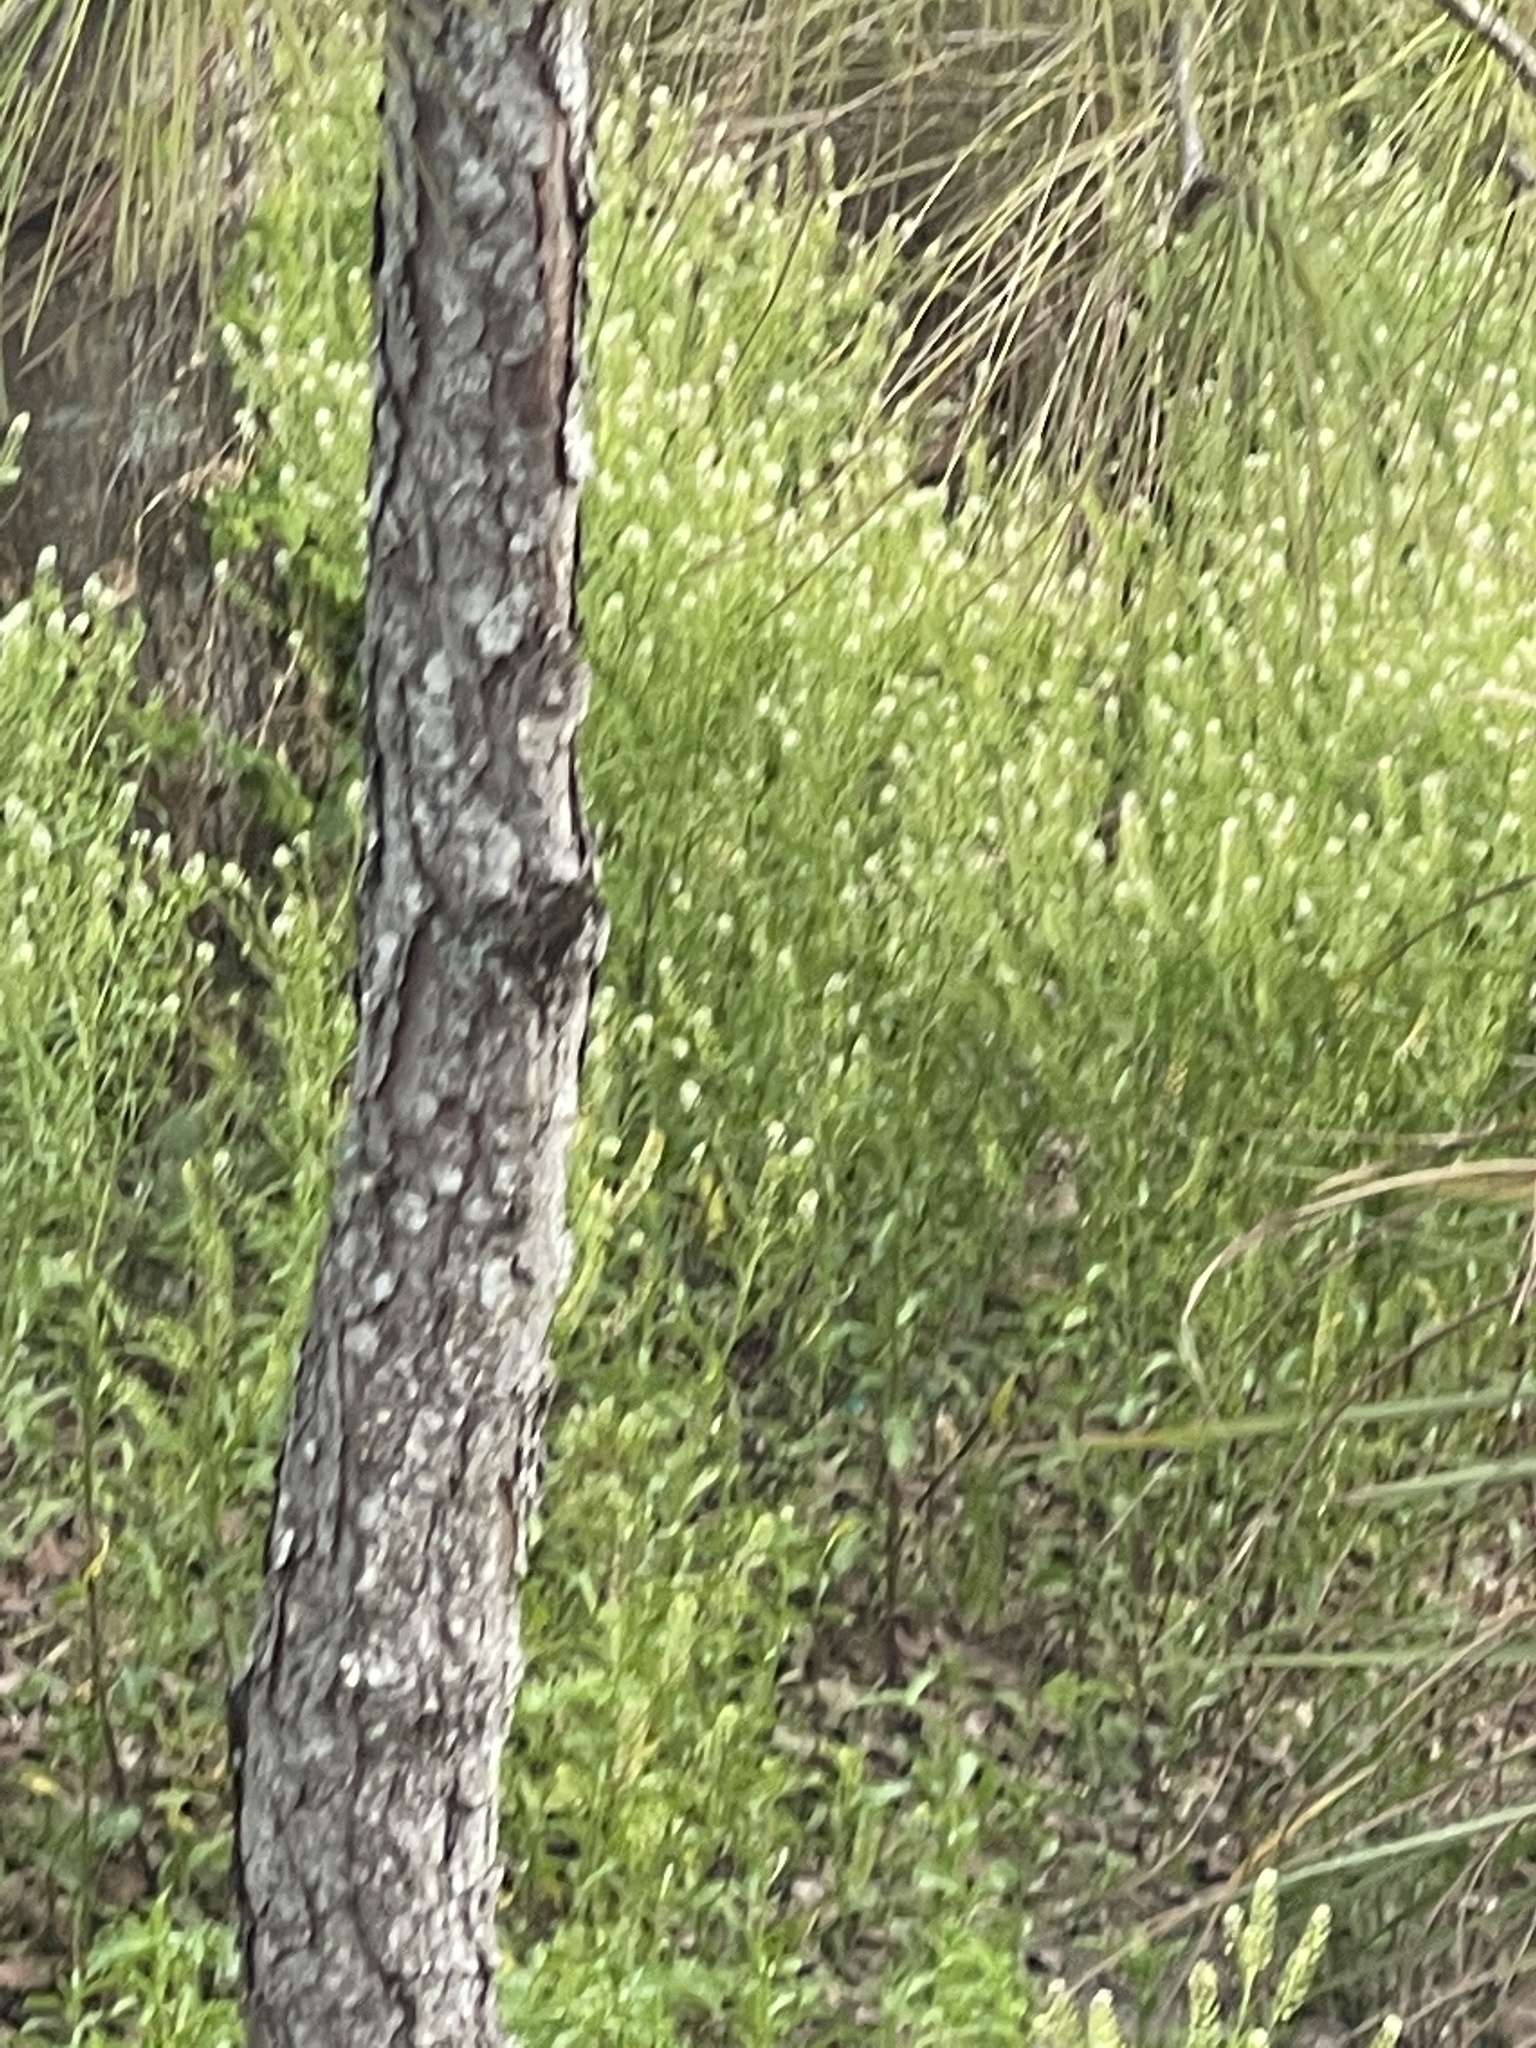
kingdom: Plantae
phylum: Tracheophyta
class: Magnoliopsida
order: Brassicales
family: Brassicaceae
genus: Lepidium
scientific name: Lepidium virginicum
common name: Least pepperwort
